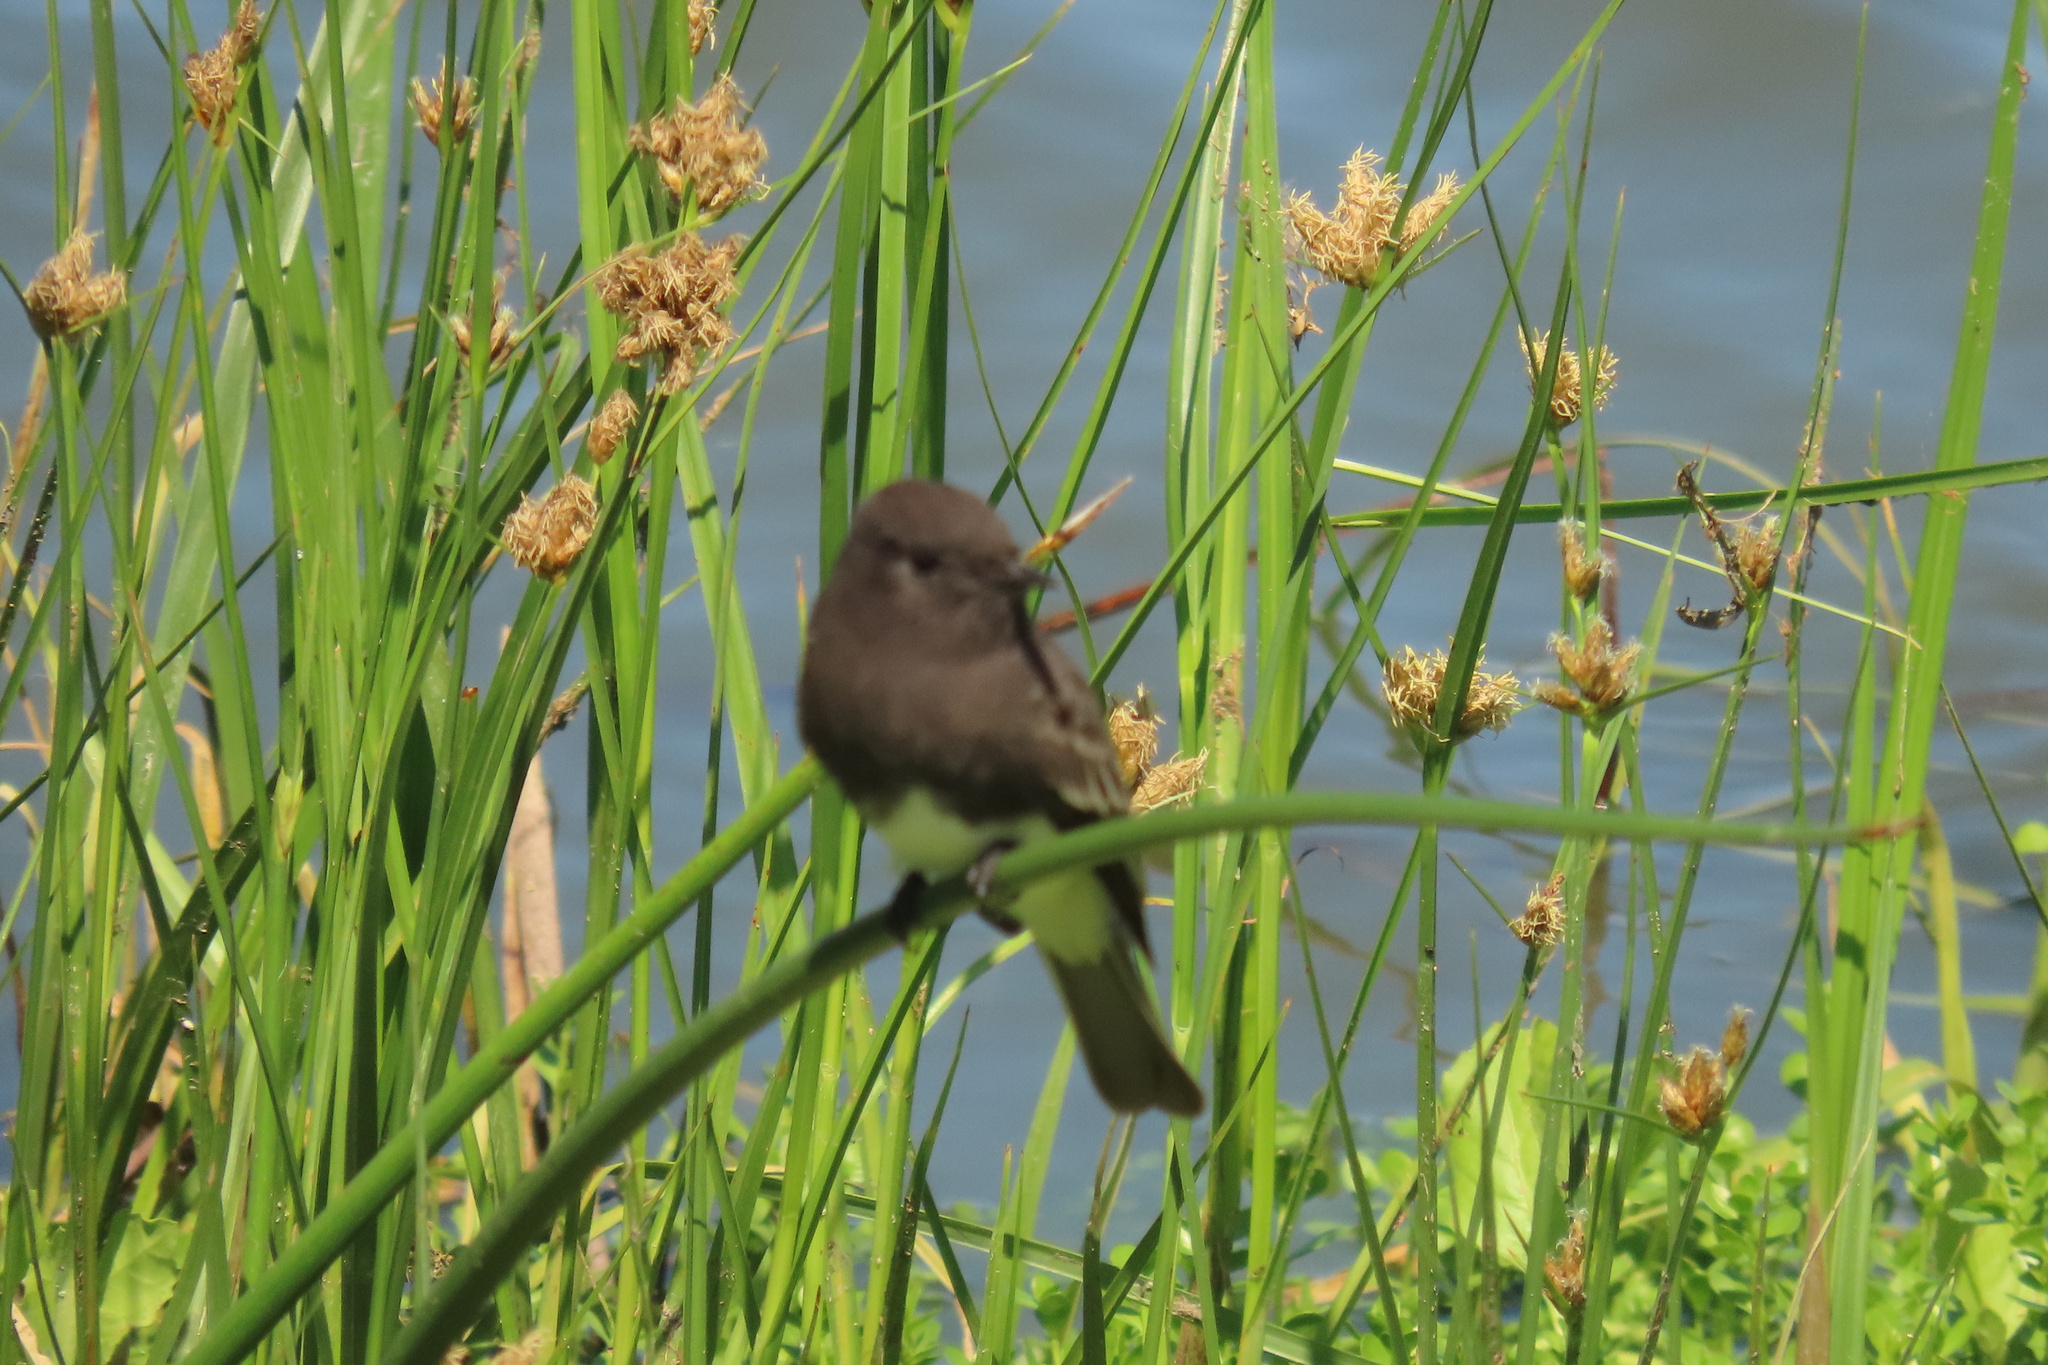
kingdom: Animalia
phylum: Chordata
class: Aves
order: Passeriformes
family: Tyrannidae
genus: Sayornis
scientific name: Sayornis nigricans
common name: Black phoebe
